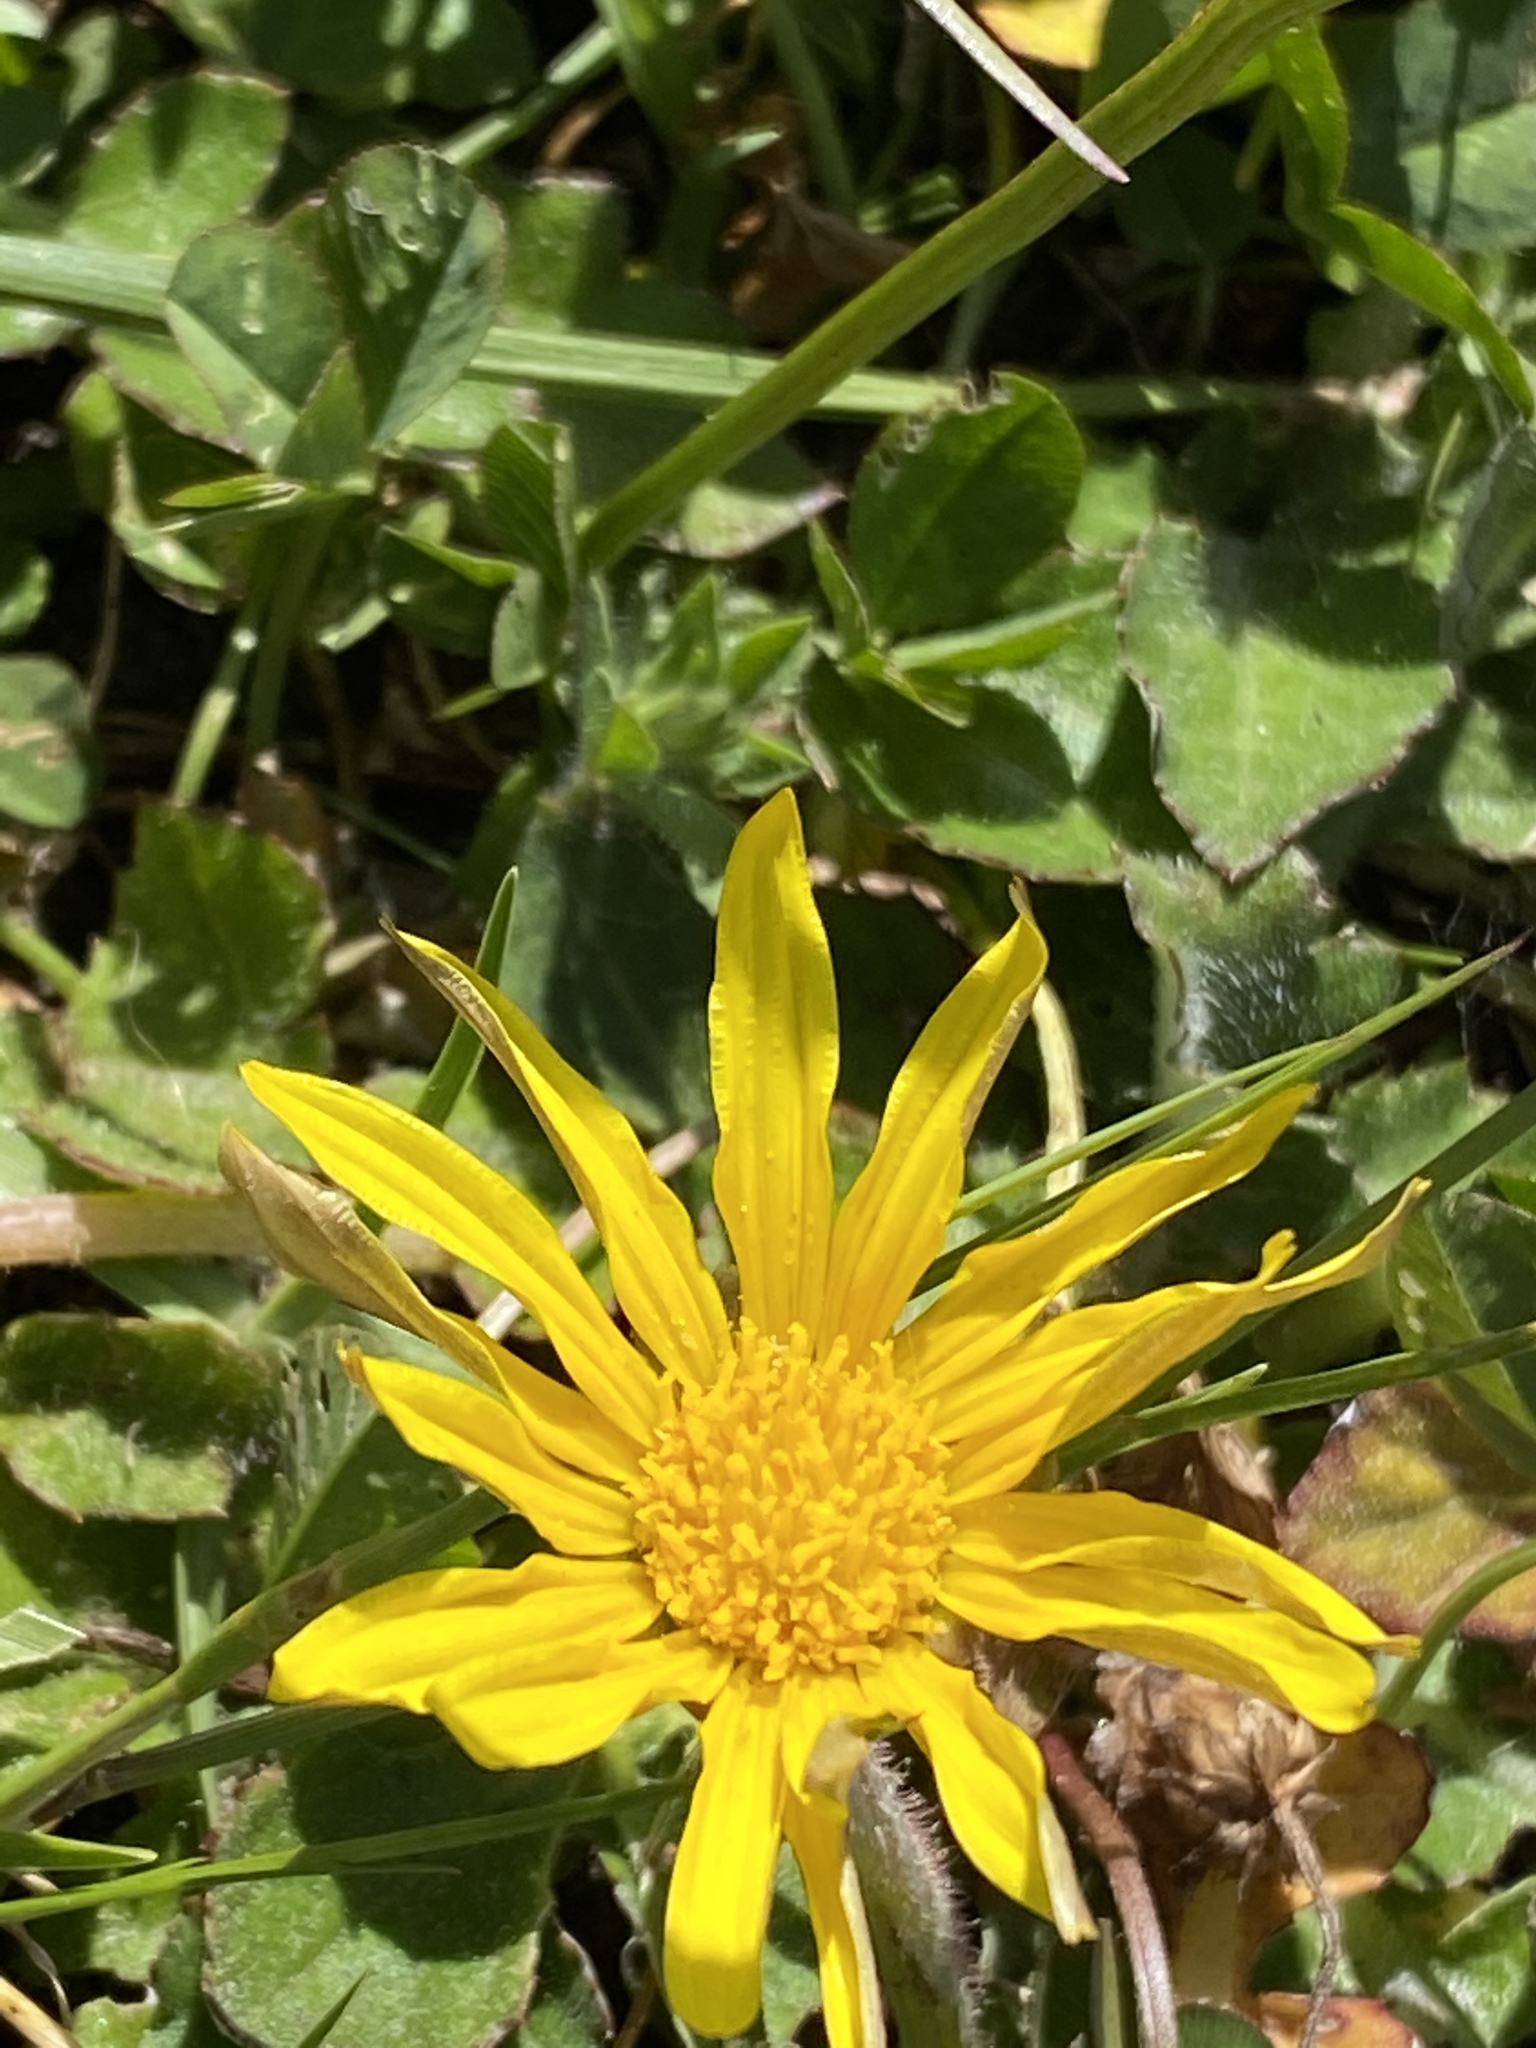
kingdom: Plantae
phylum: Tracheophyta
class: Magnoliopsida
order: Asterales
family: Asteraceae
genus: Arctotheca
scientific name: Arctotheca prostrata
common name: Capeweed
